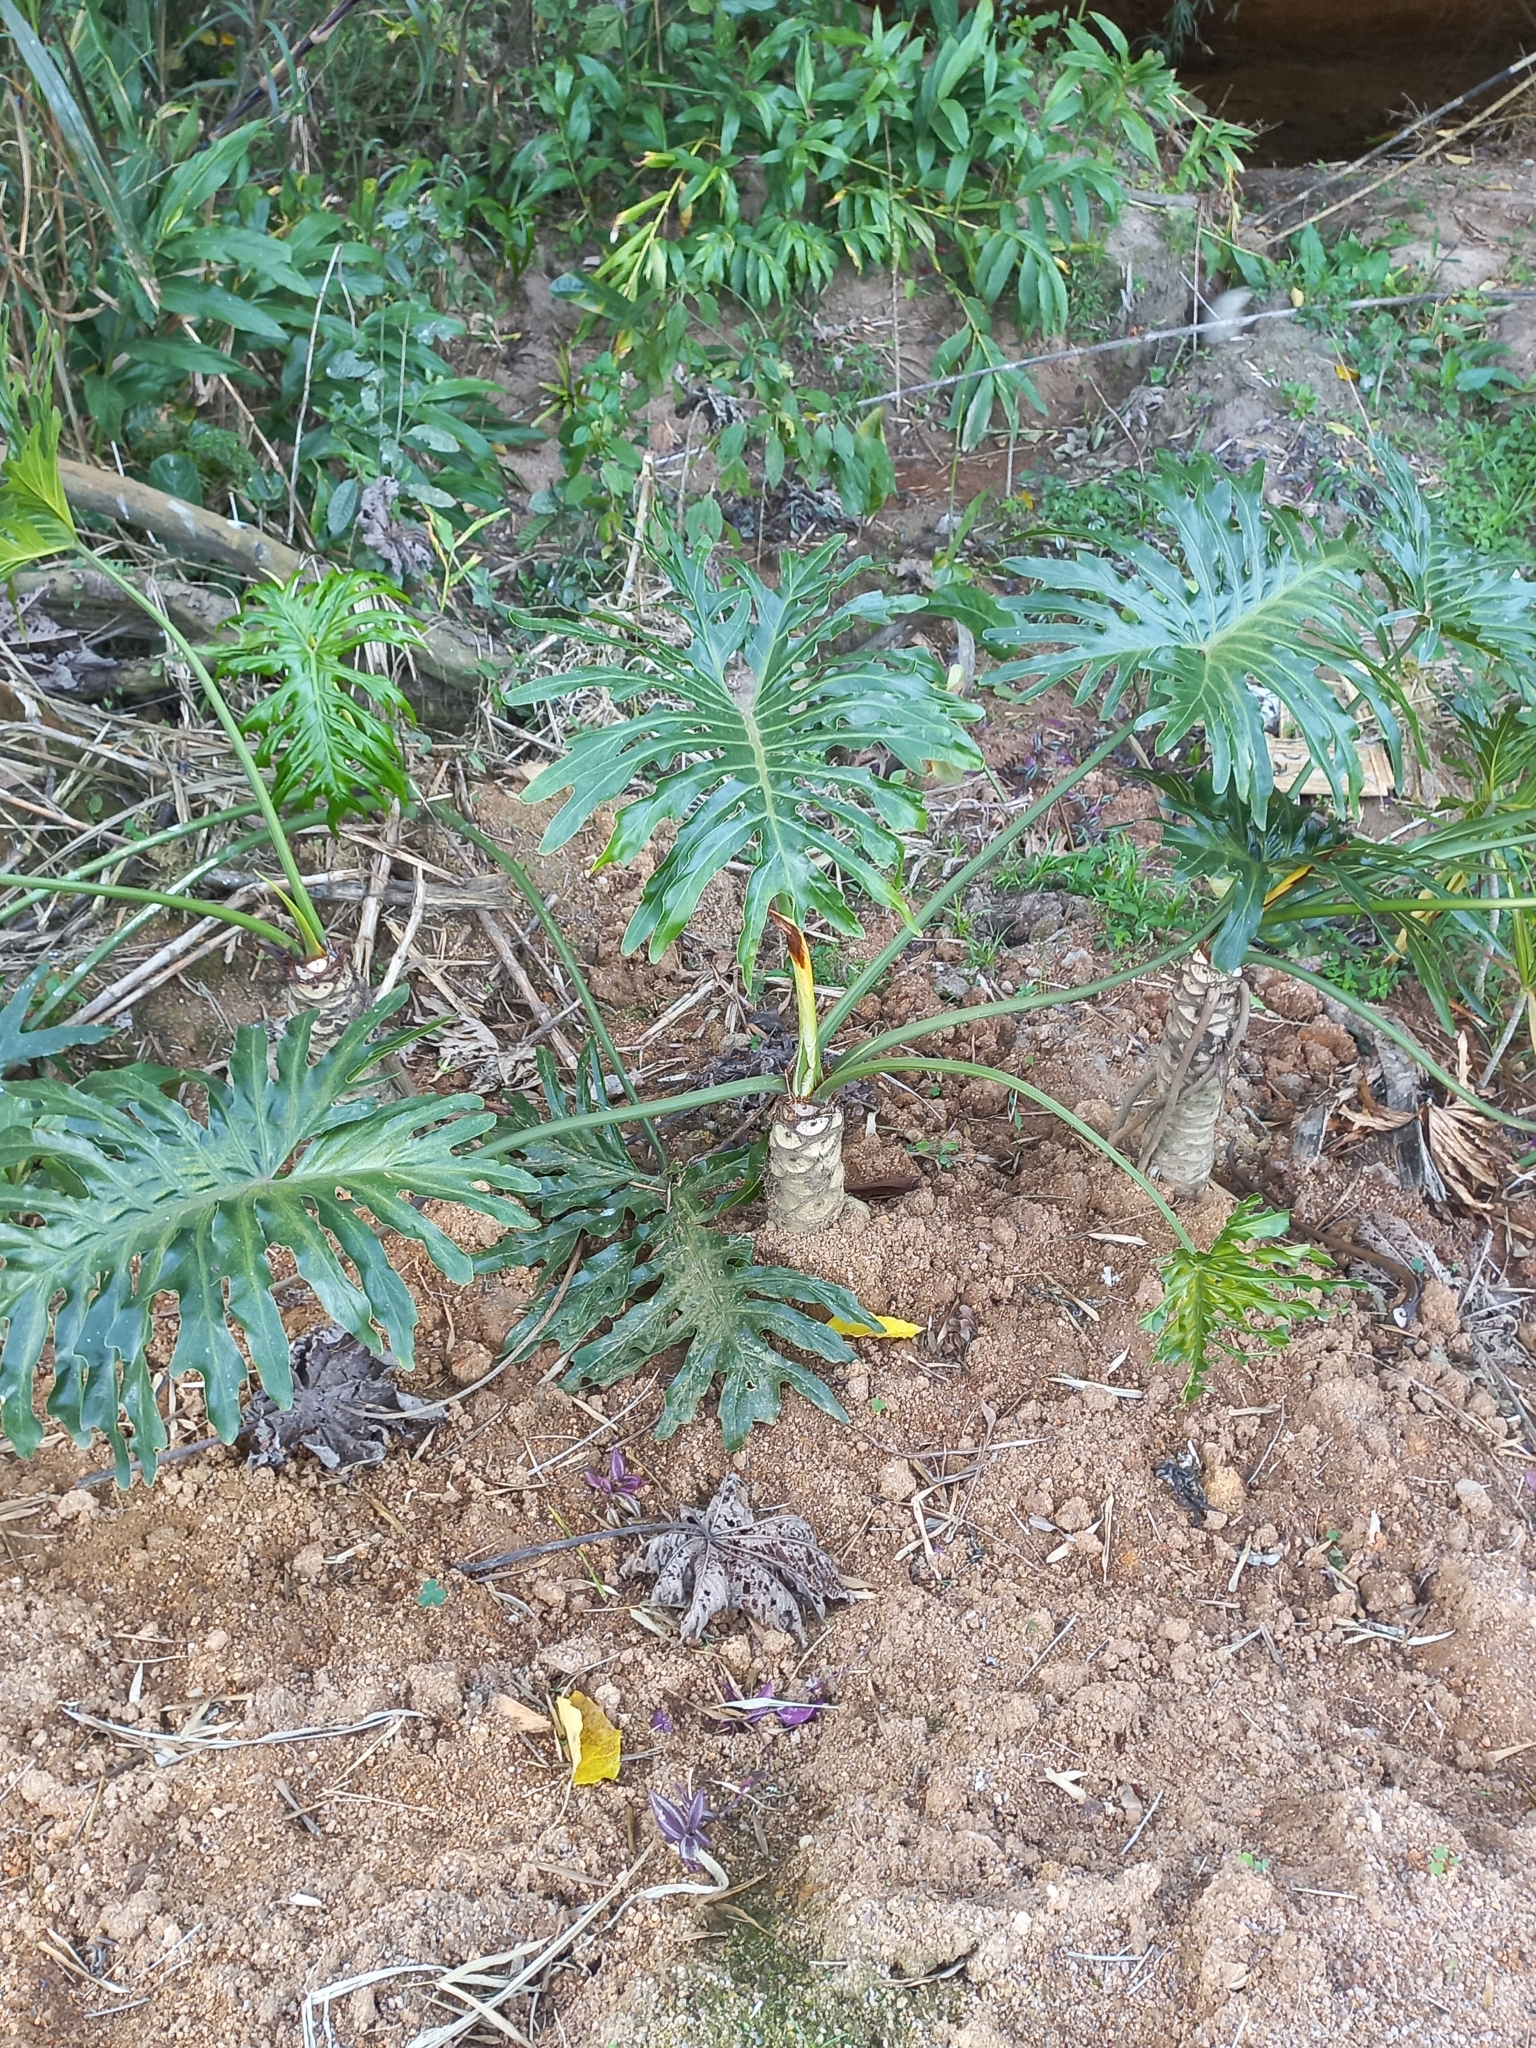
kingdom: Plantae
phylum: Tracheophyta
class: Liliopsida
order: Alismatales
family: Araceae
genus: Thaumatophyllum
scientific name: Thaumatophyllum bipinnatifidum
